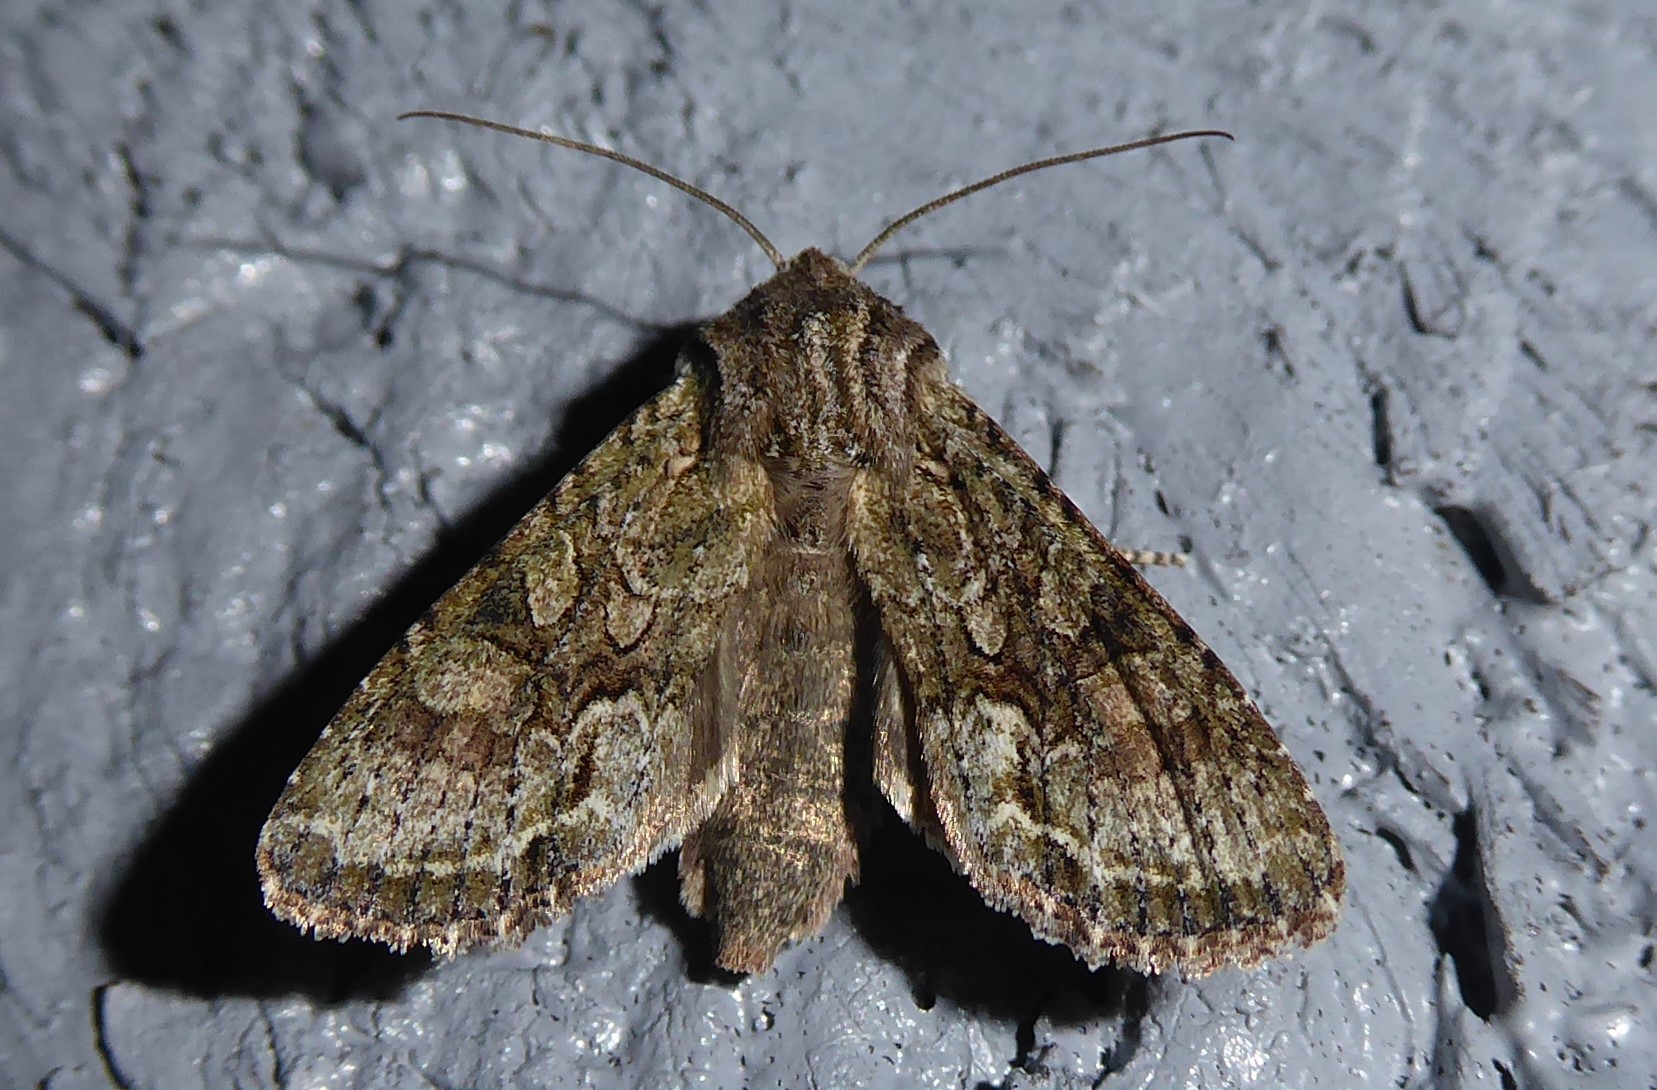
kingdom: Animalia
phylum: Arthropoda
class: Insecta
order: Lepidoptera
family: Noctuidae
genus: Ichneutica
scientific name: Ichneutica mutans
